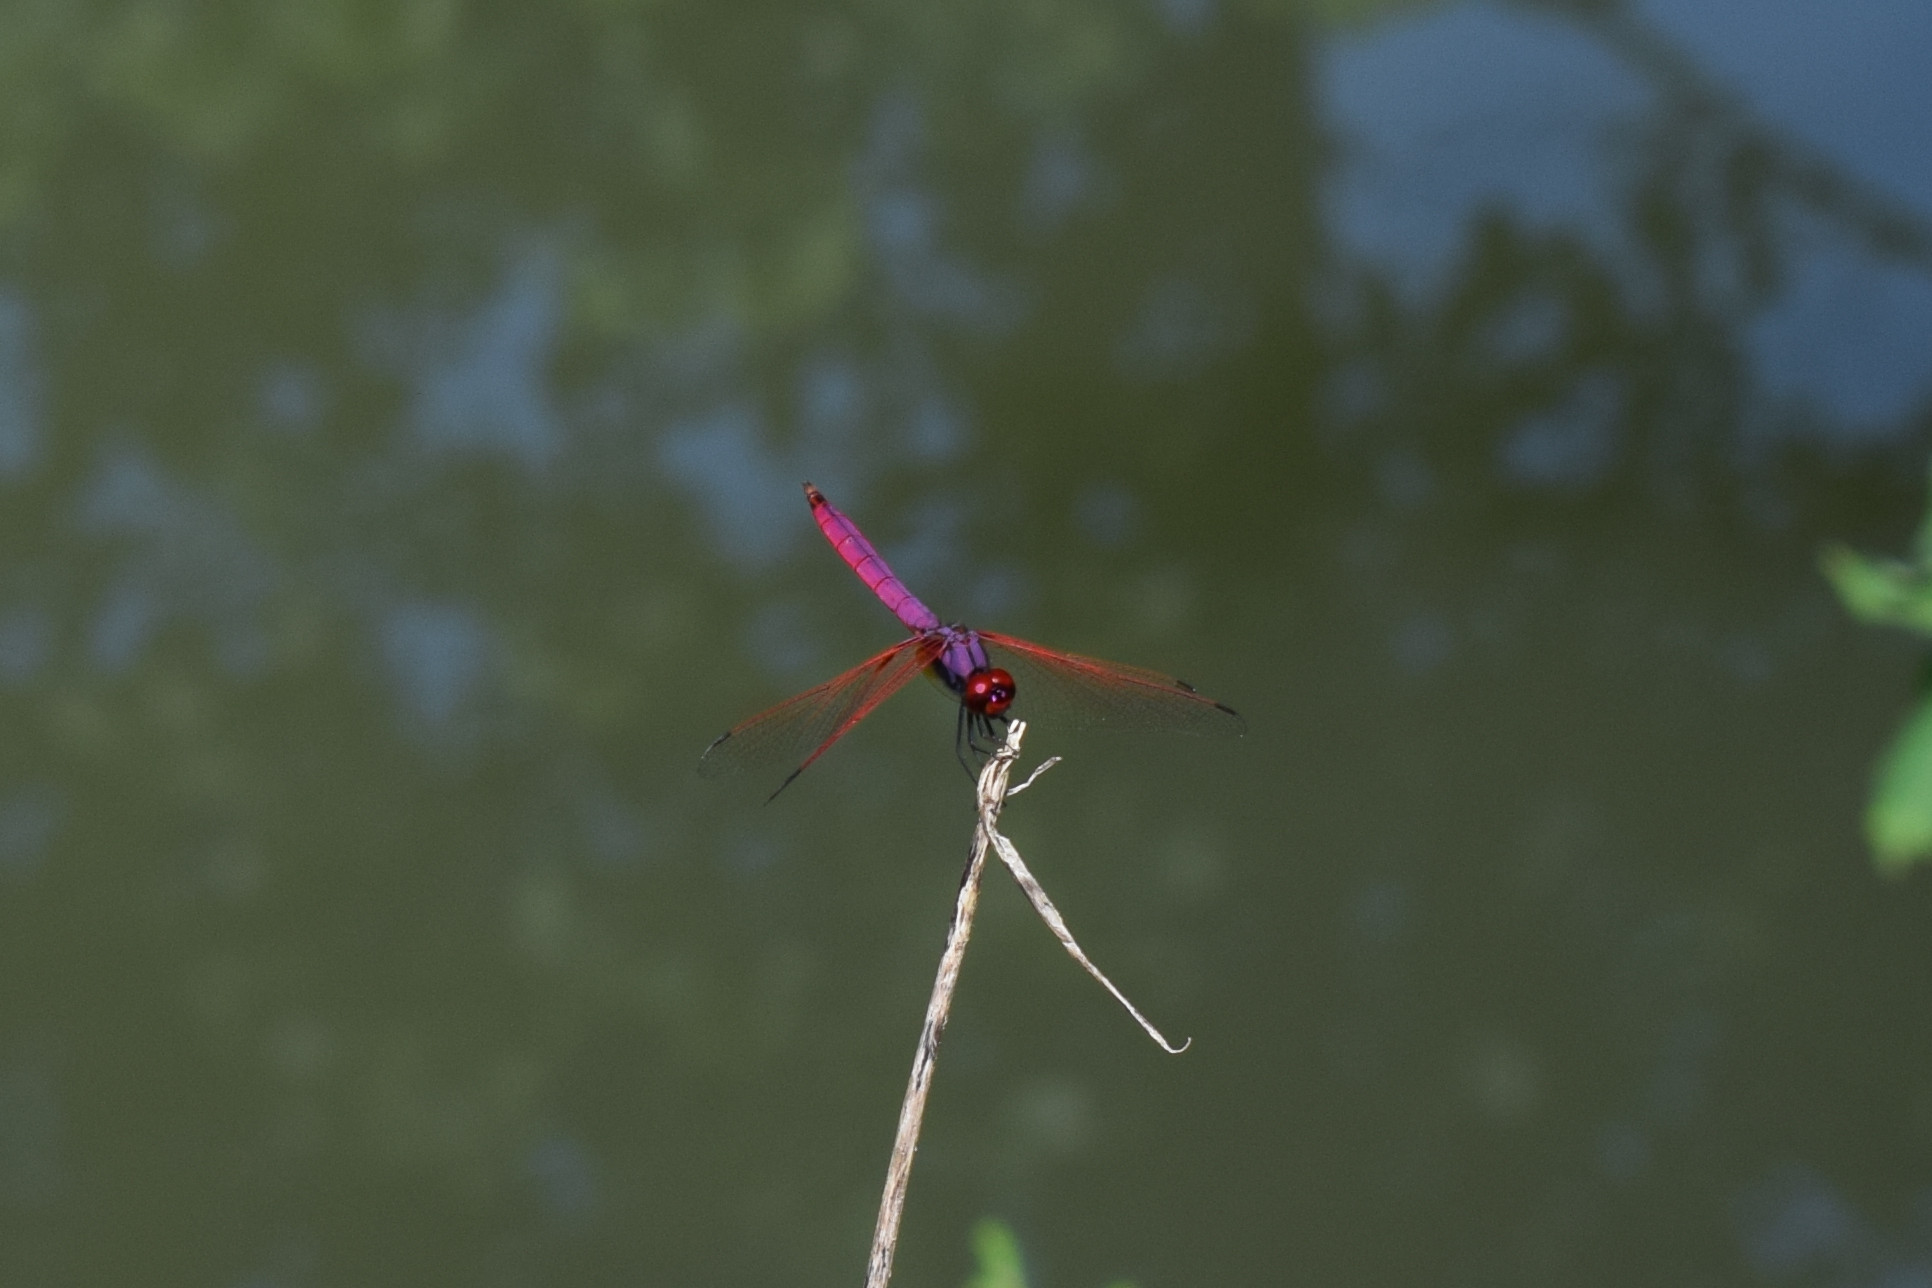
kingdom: Animalia
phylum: Arthropoda
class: Insecta
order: Odonata
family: Libellulidae
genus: Trithemis
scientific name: Trithemis aurora
